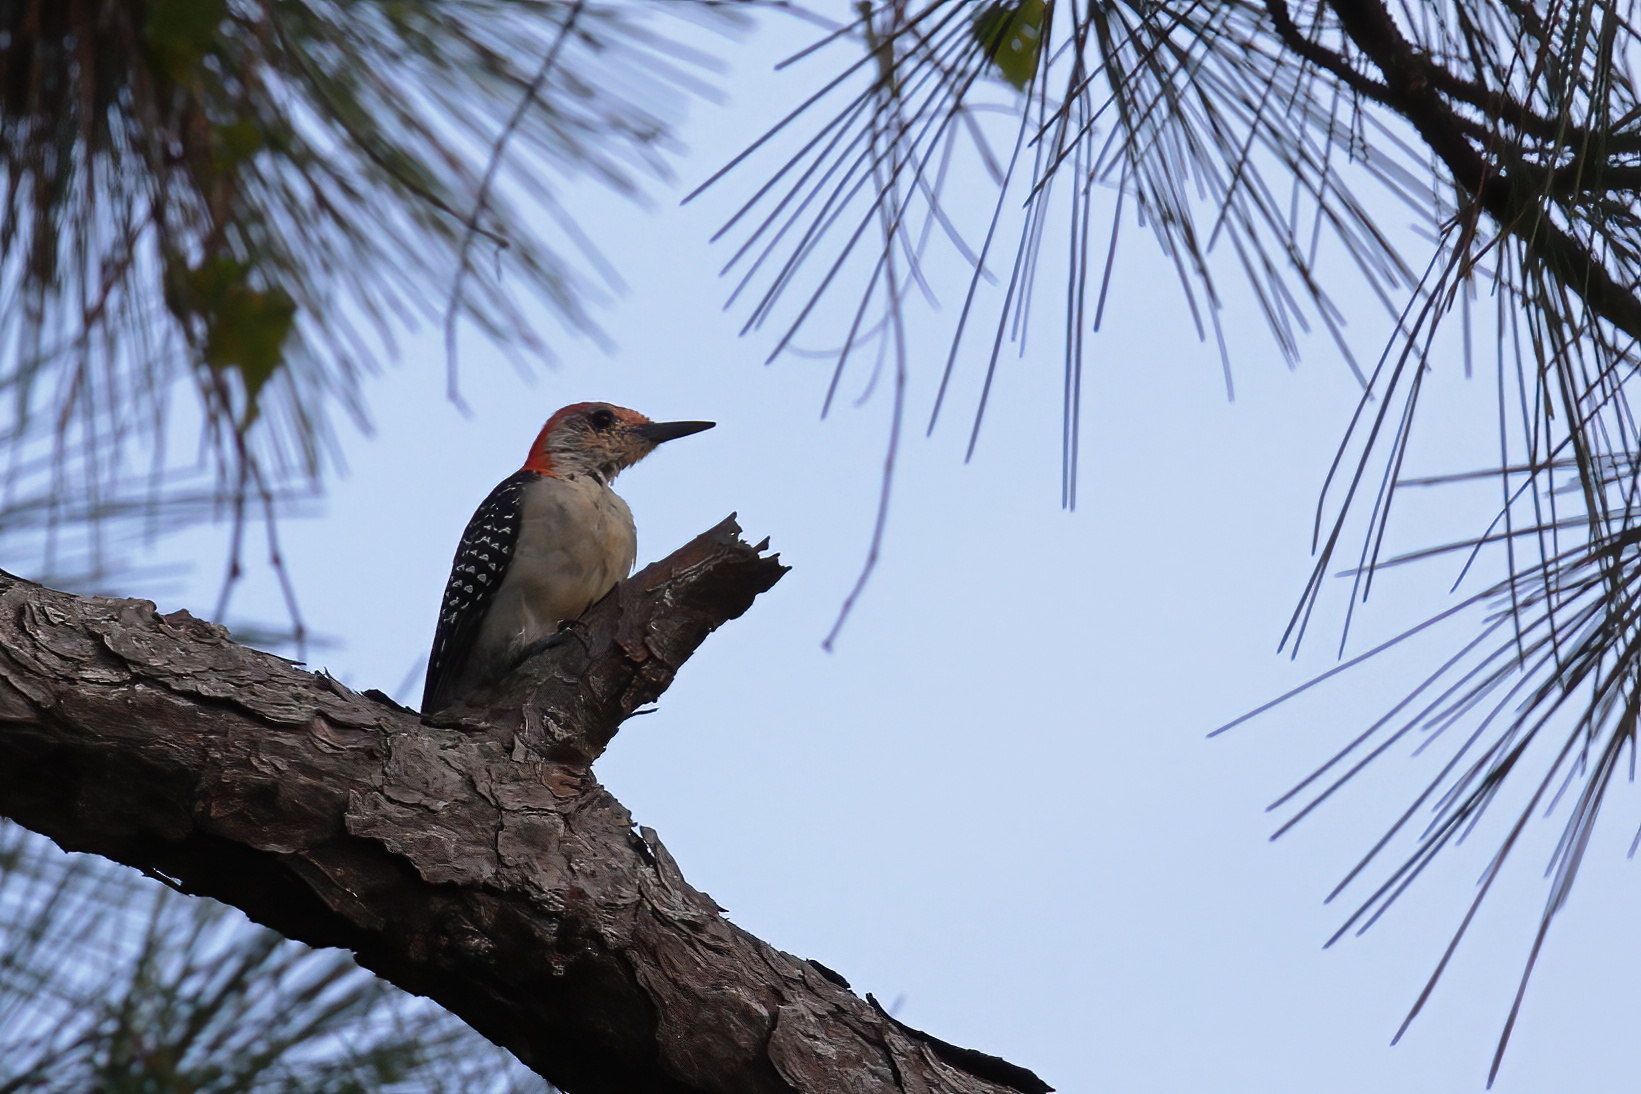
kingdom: Animalia
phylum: Chordata
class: Aves
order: Piciformes
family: Picidae
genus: Melanerpes
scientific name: Melanerpes carolinus
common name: Red-bellied woodpecker
